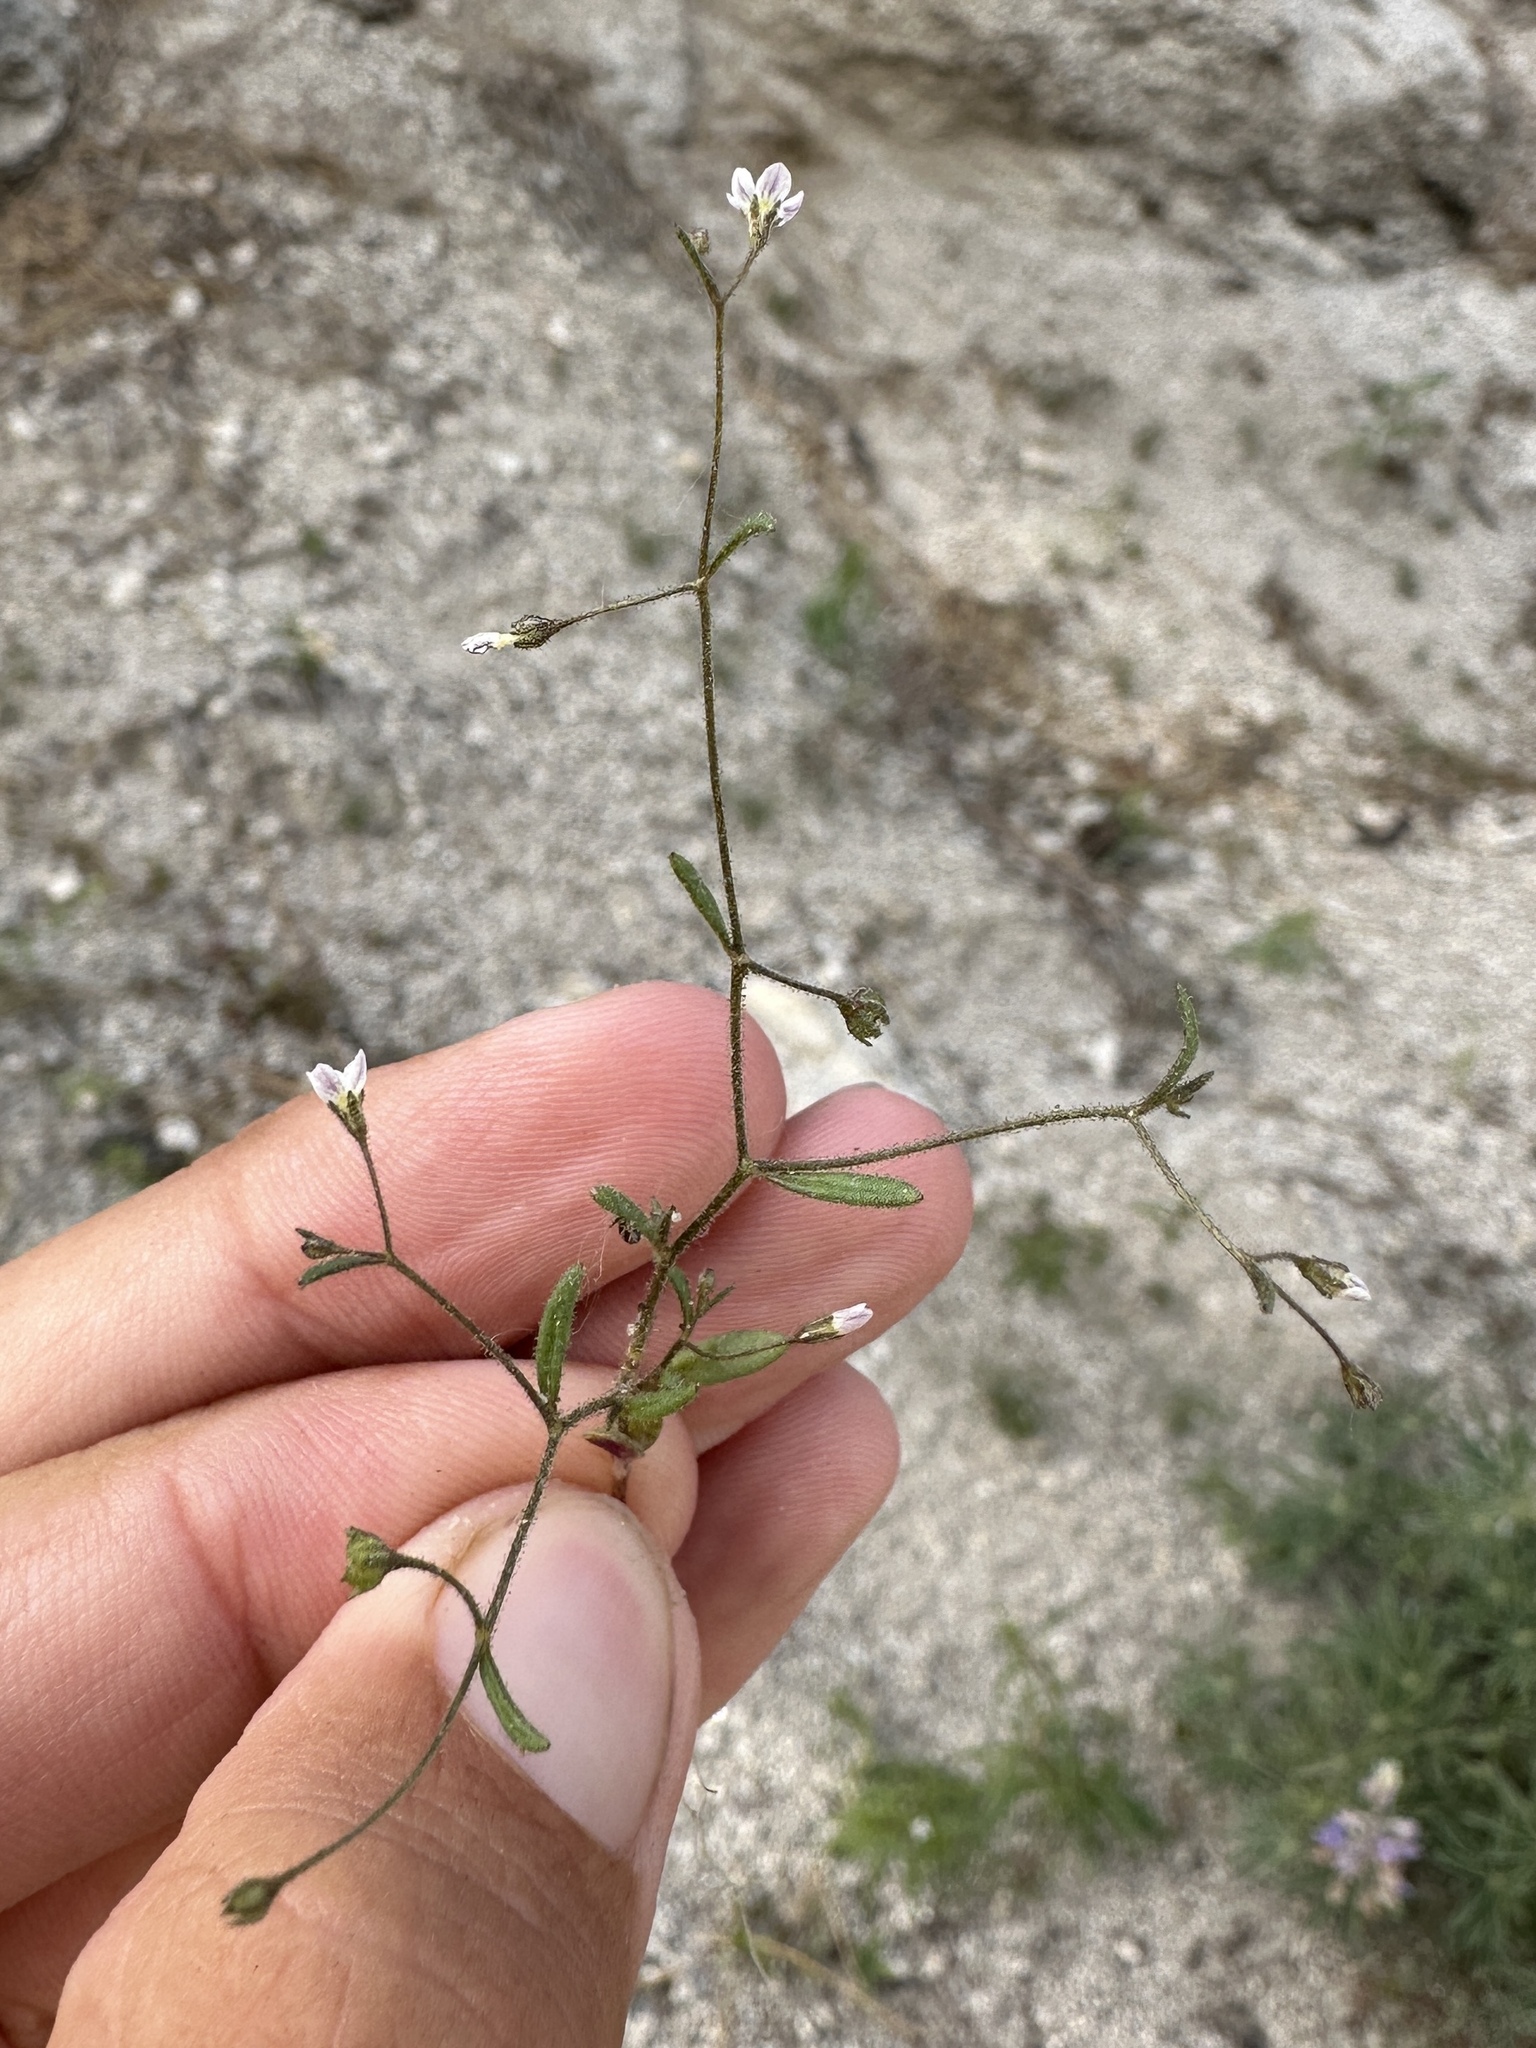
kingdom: Plantae
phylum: Tracheophyta
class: Magnoliopsida
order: Ericales
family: Polemoniaceae
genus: Lathrocasis
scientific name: Lathrocasis tenerrima
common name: Delicate gilia
